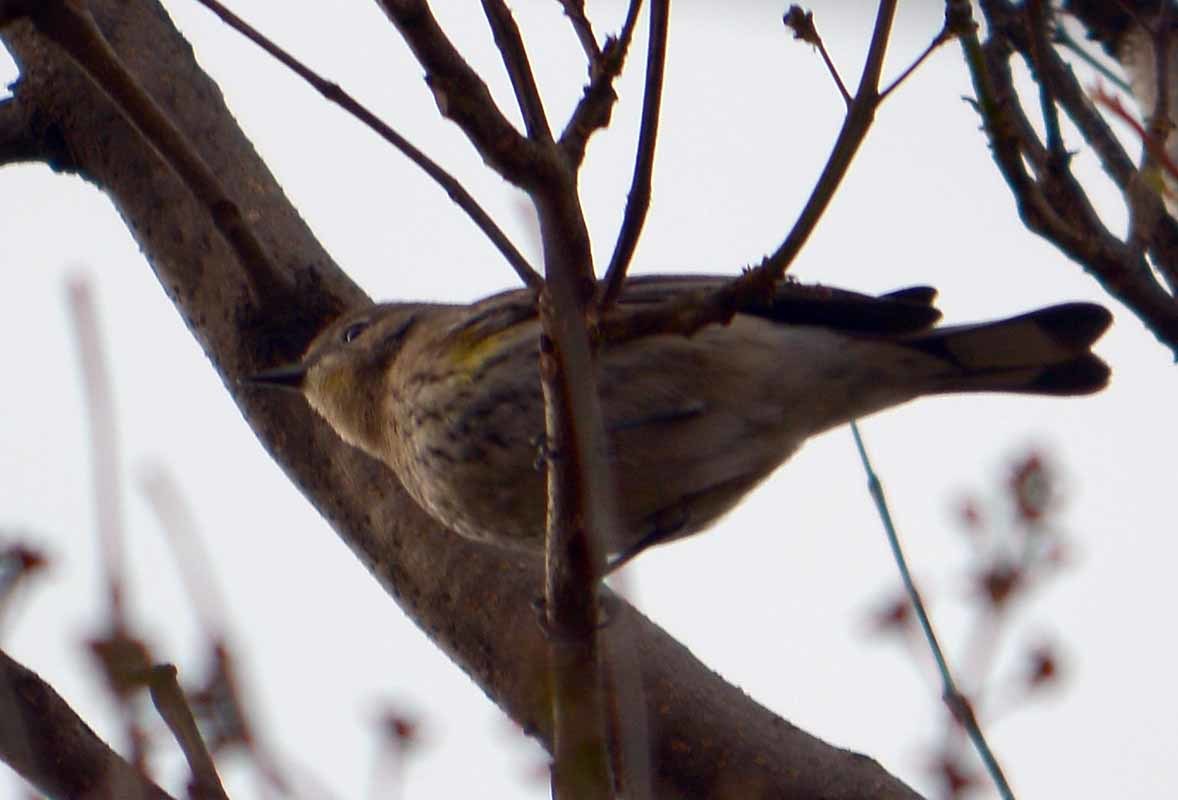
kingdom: Animalia
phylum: Chordata
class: Aves
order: Passeriformes
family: Parulidae
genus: Setophaga
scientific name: Setophaga coronata
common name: Myrtle warbler
